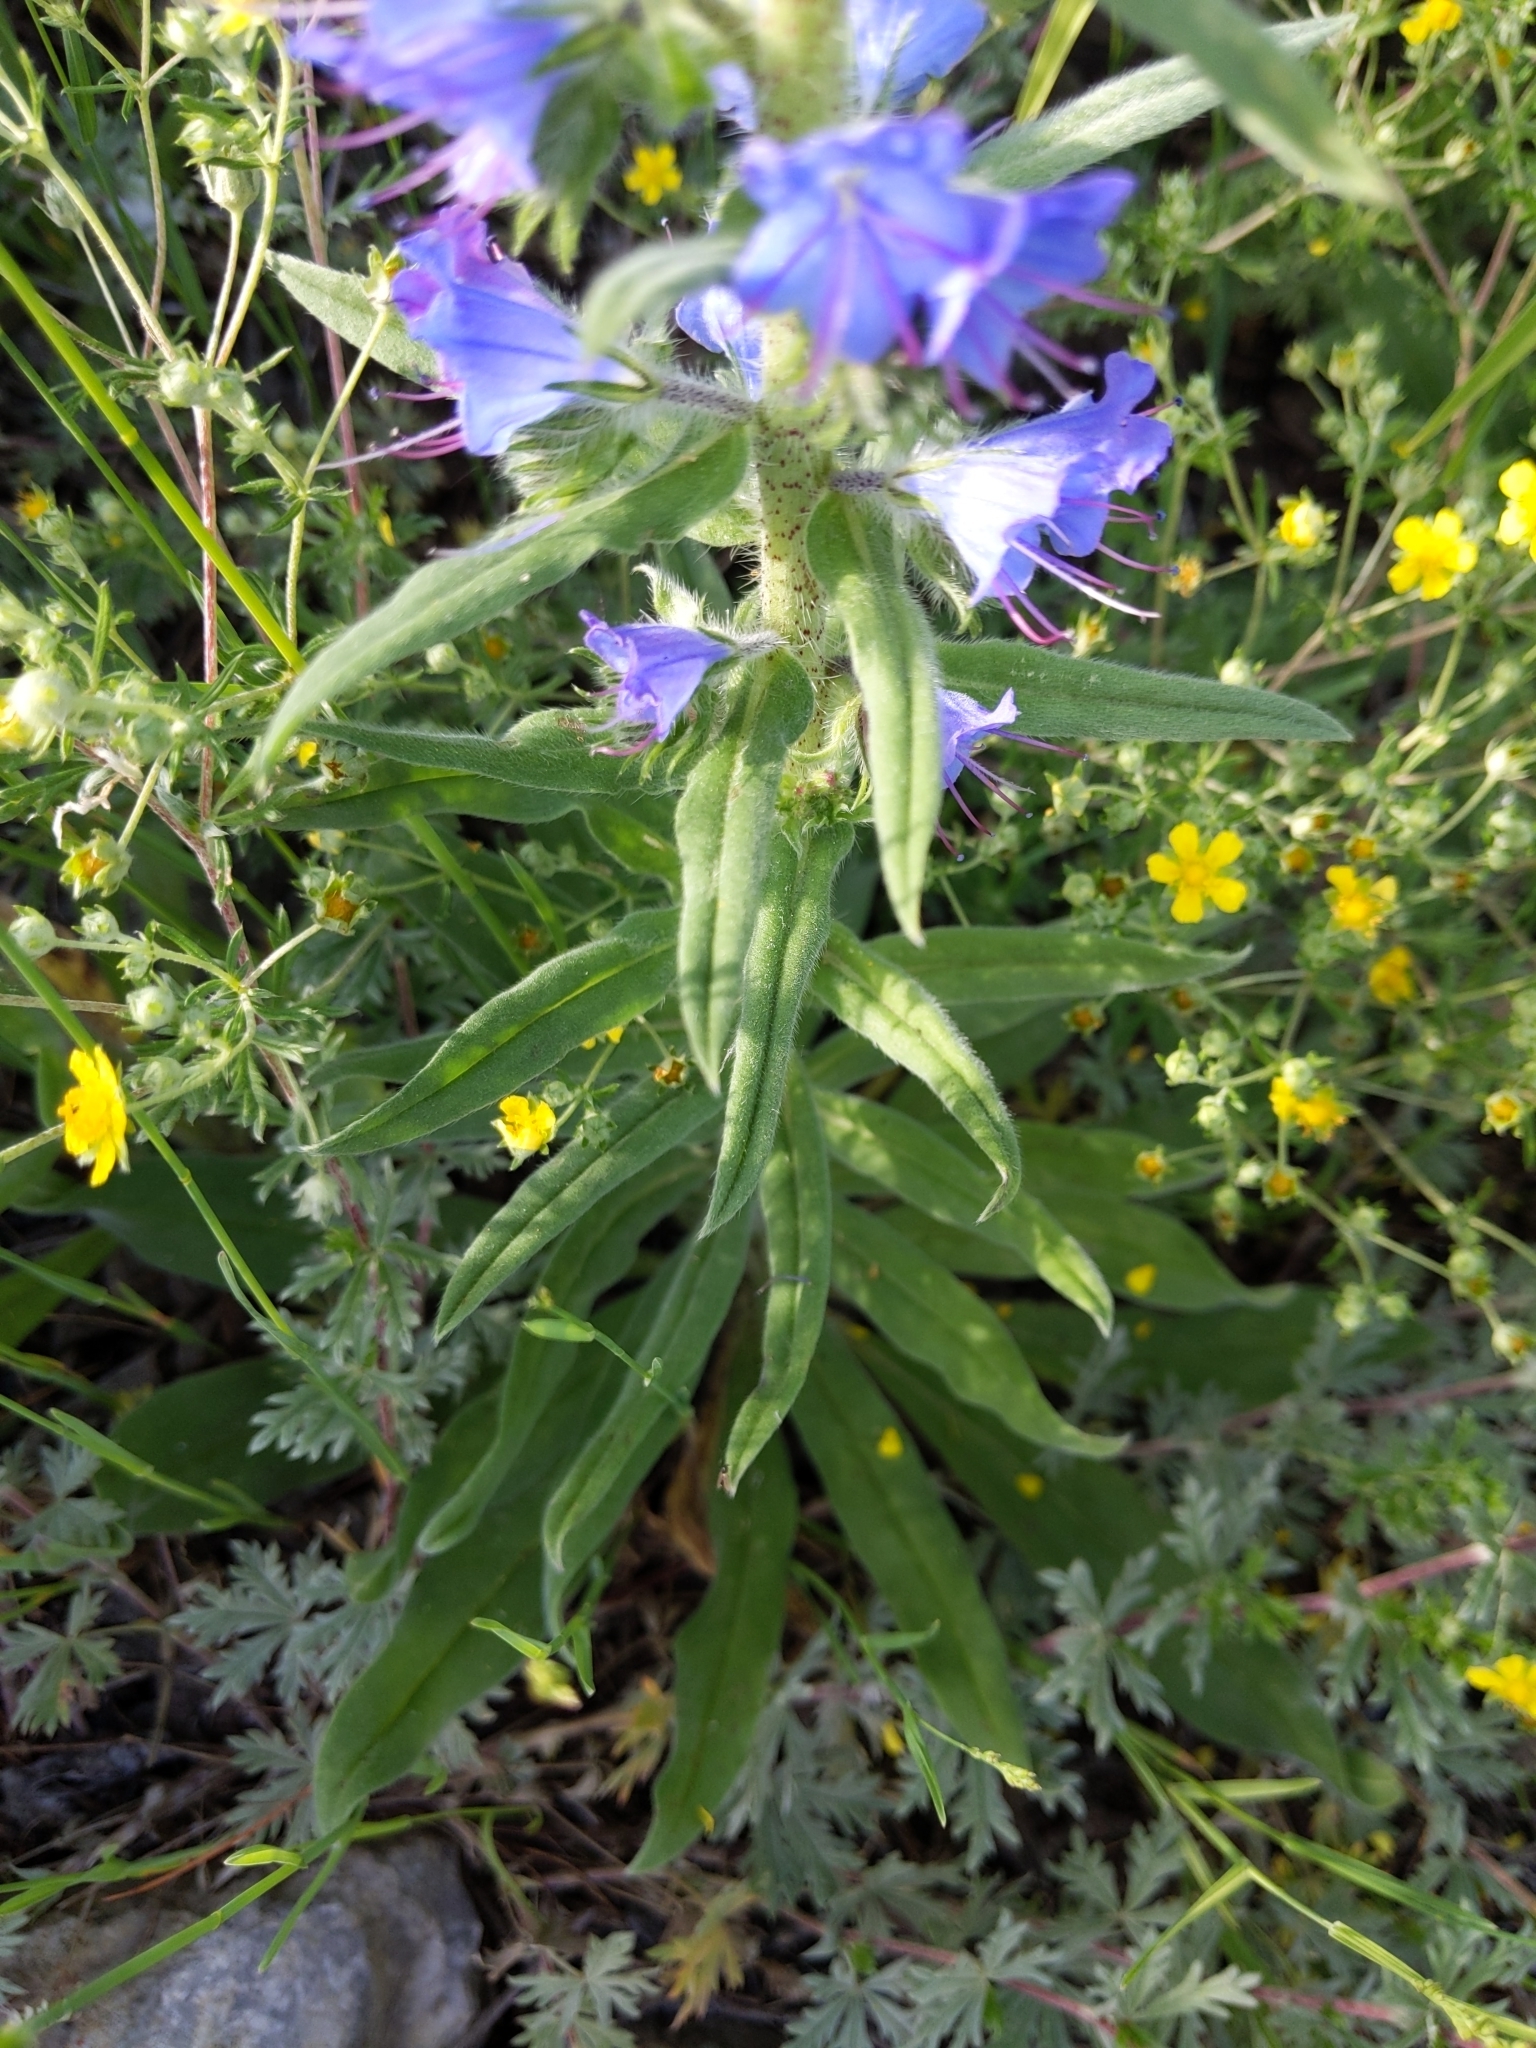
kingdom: Plantae
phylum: Tracheophyta
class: Magnoliopsida
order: Boraginales
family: Boraginaceae
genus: Echium
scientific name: Echium vulgare
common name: Common viper's bugloss
